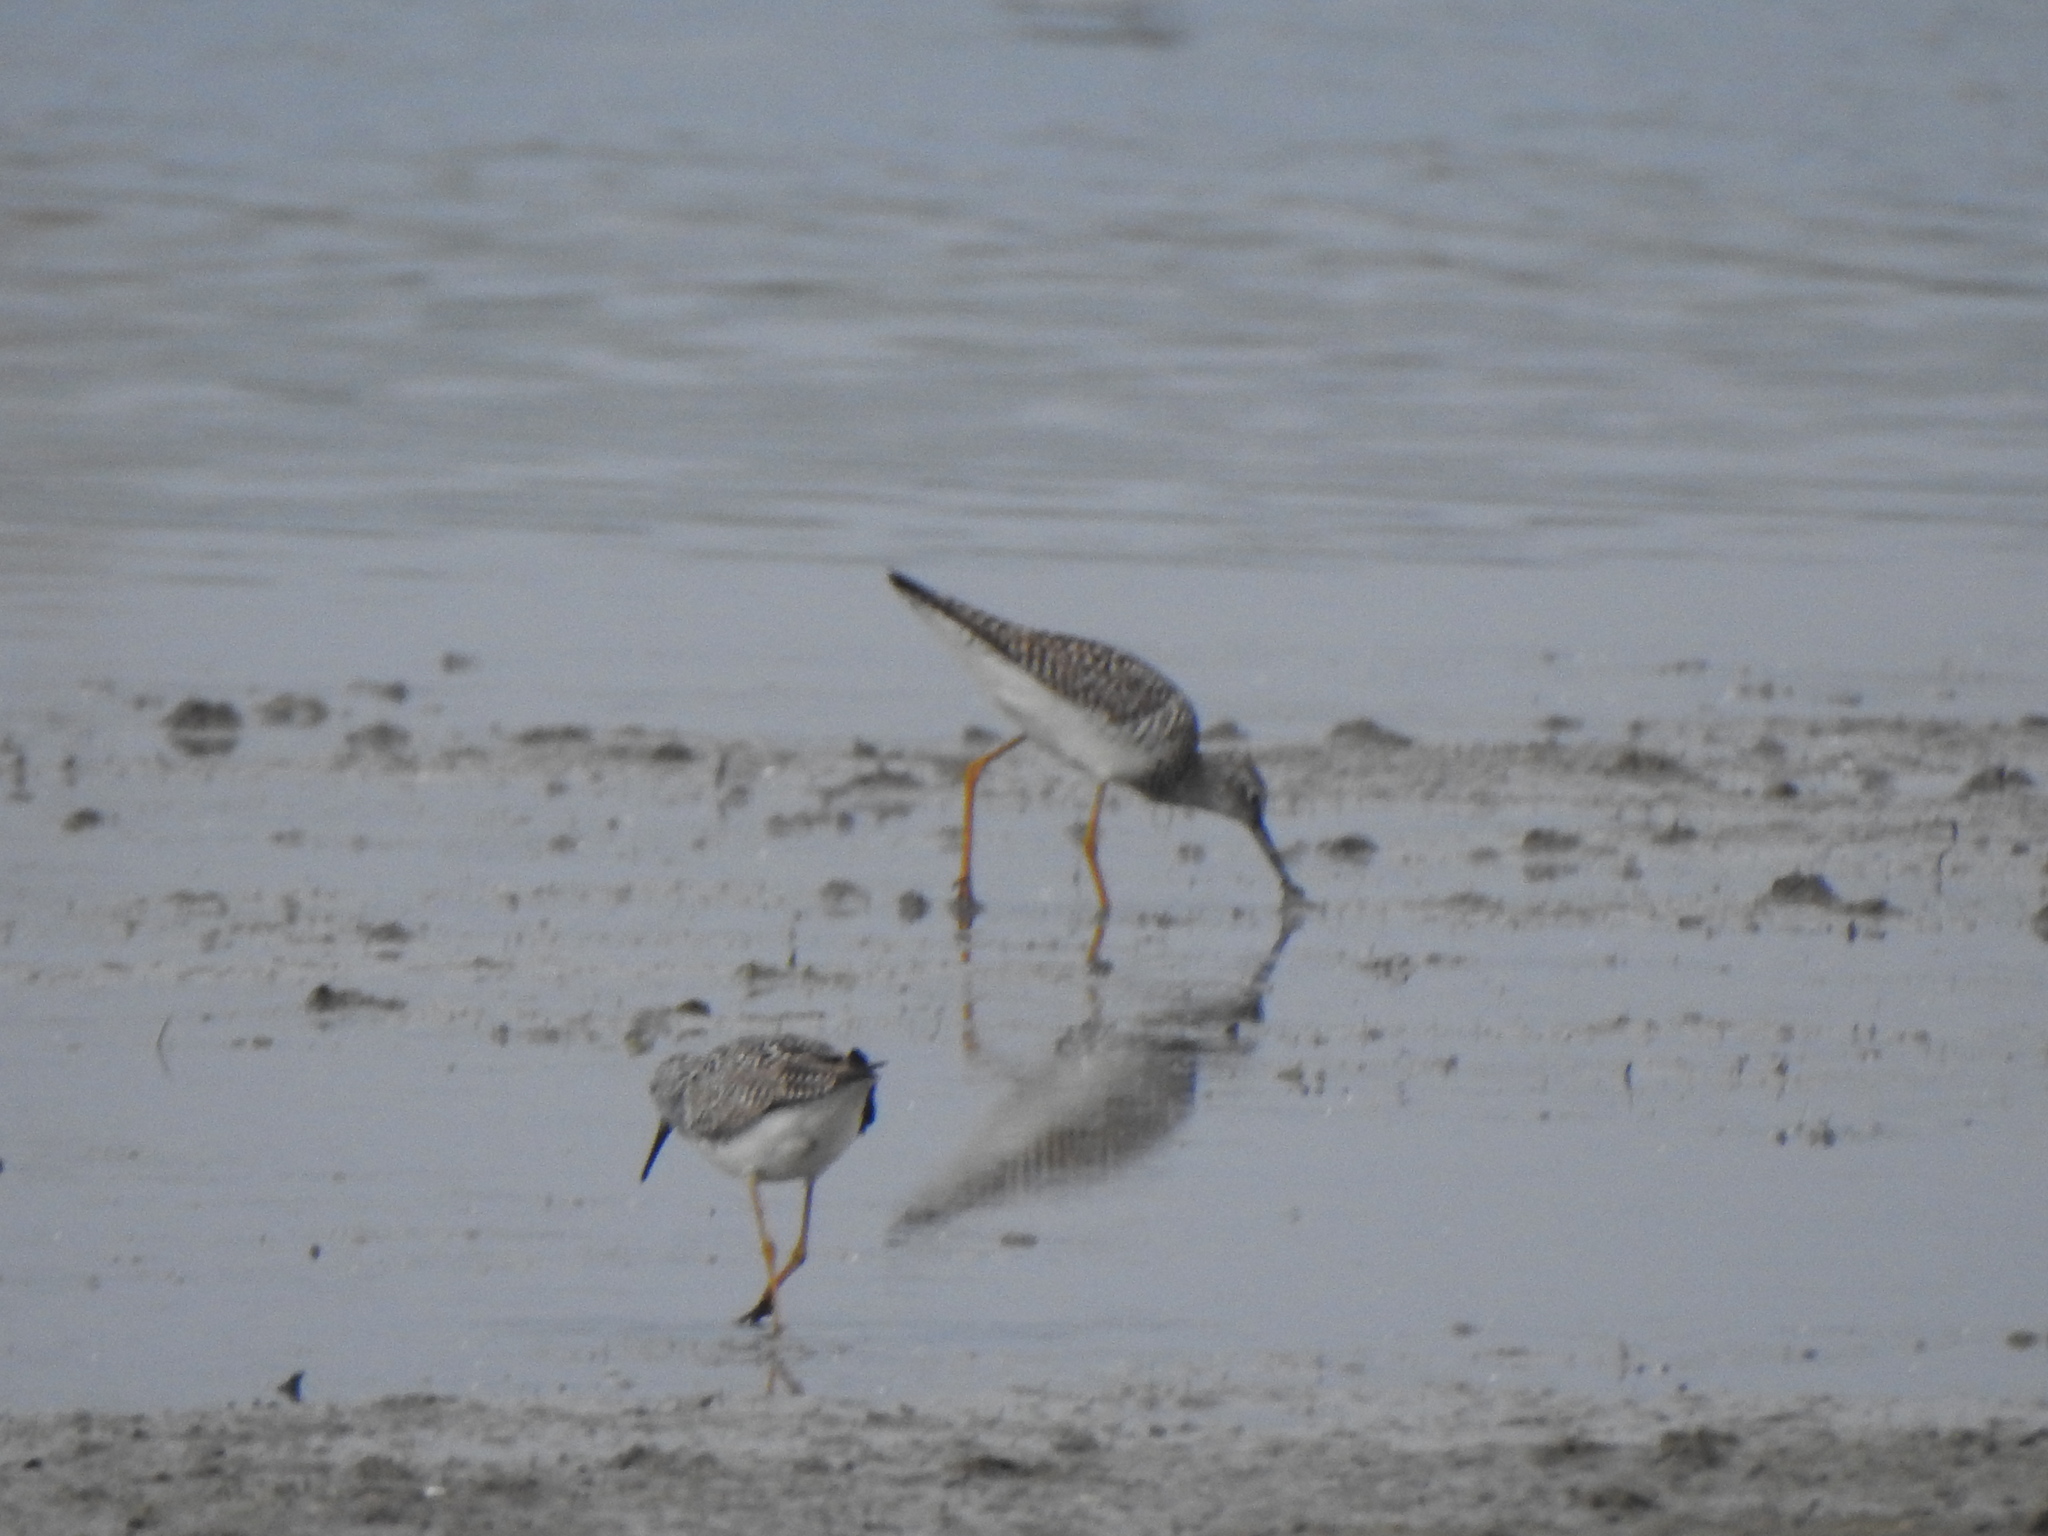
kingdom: Animalia
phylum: Chordata
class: Aves
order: Charadriiformes
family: Scolopacidae
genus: Tringa
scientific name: Tringa flavipes
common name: Lesser yellowlegs
